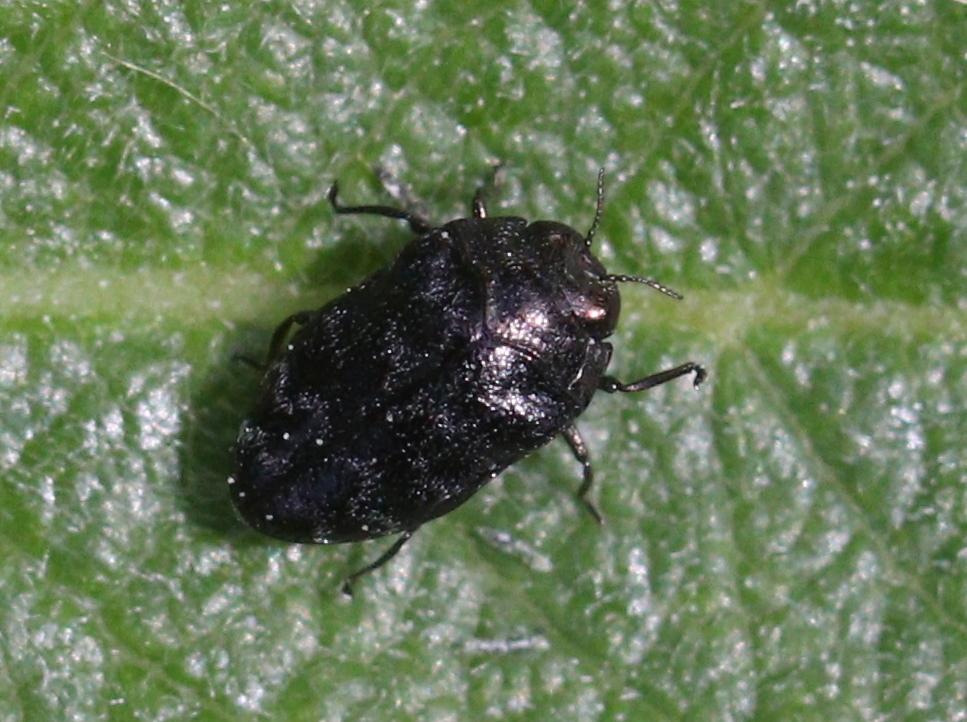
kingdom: Animalia
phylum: Arthropoda
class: Insecta
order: Coleoptera
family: Buprestidae
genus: Trachys
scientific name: Trachys minutus
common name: Metallic wood-boring beetle
